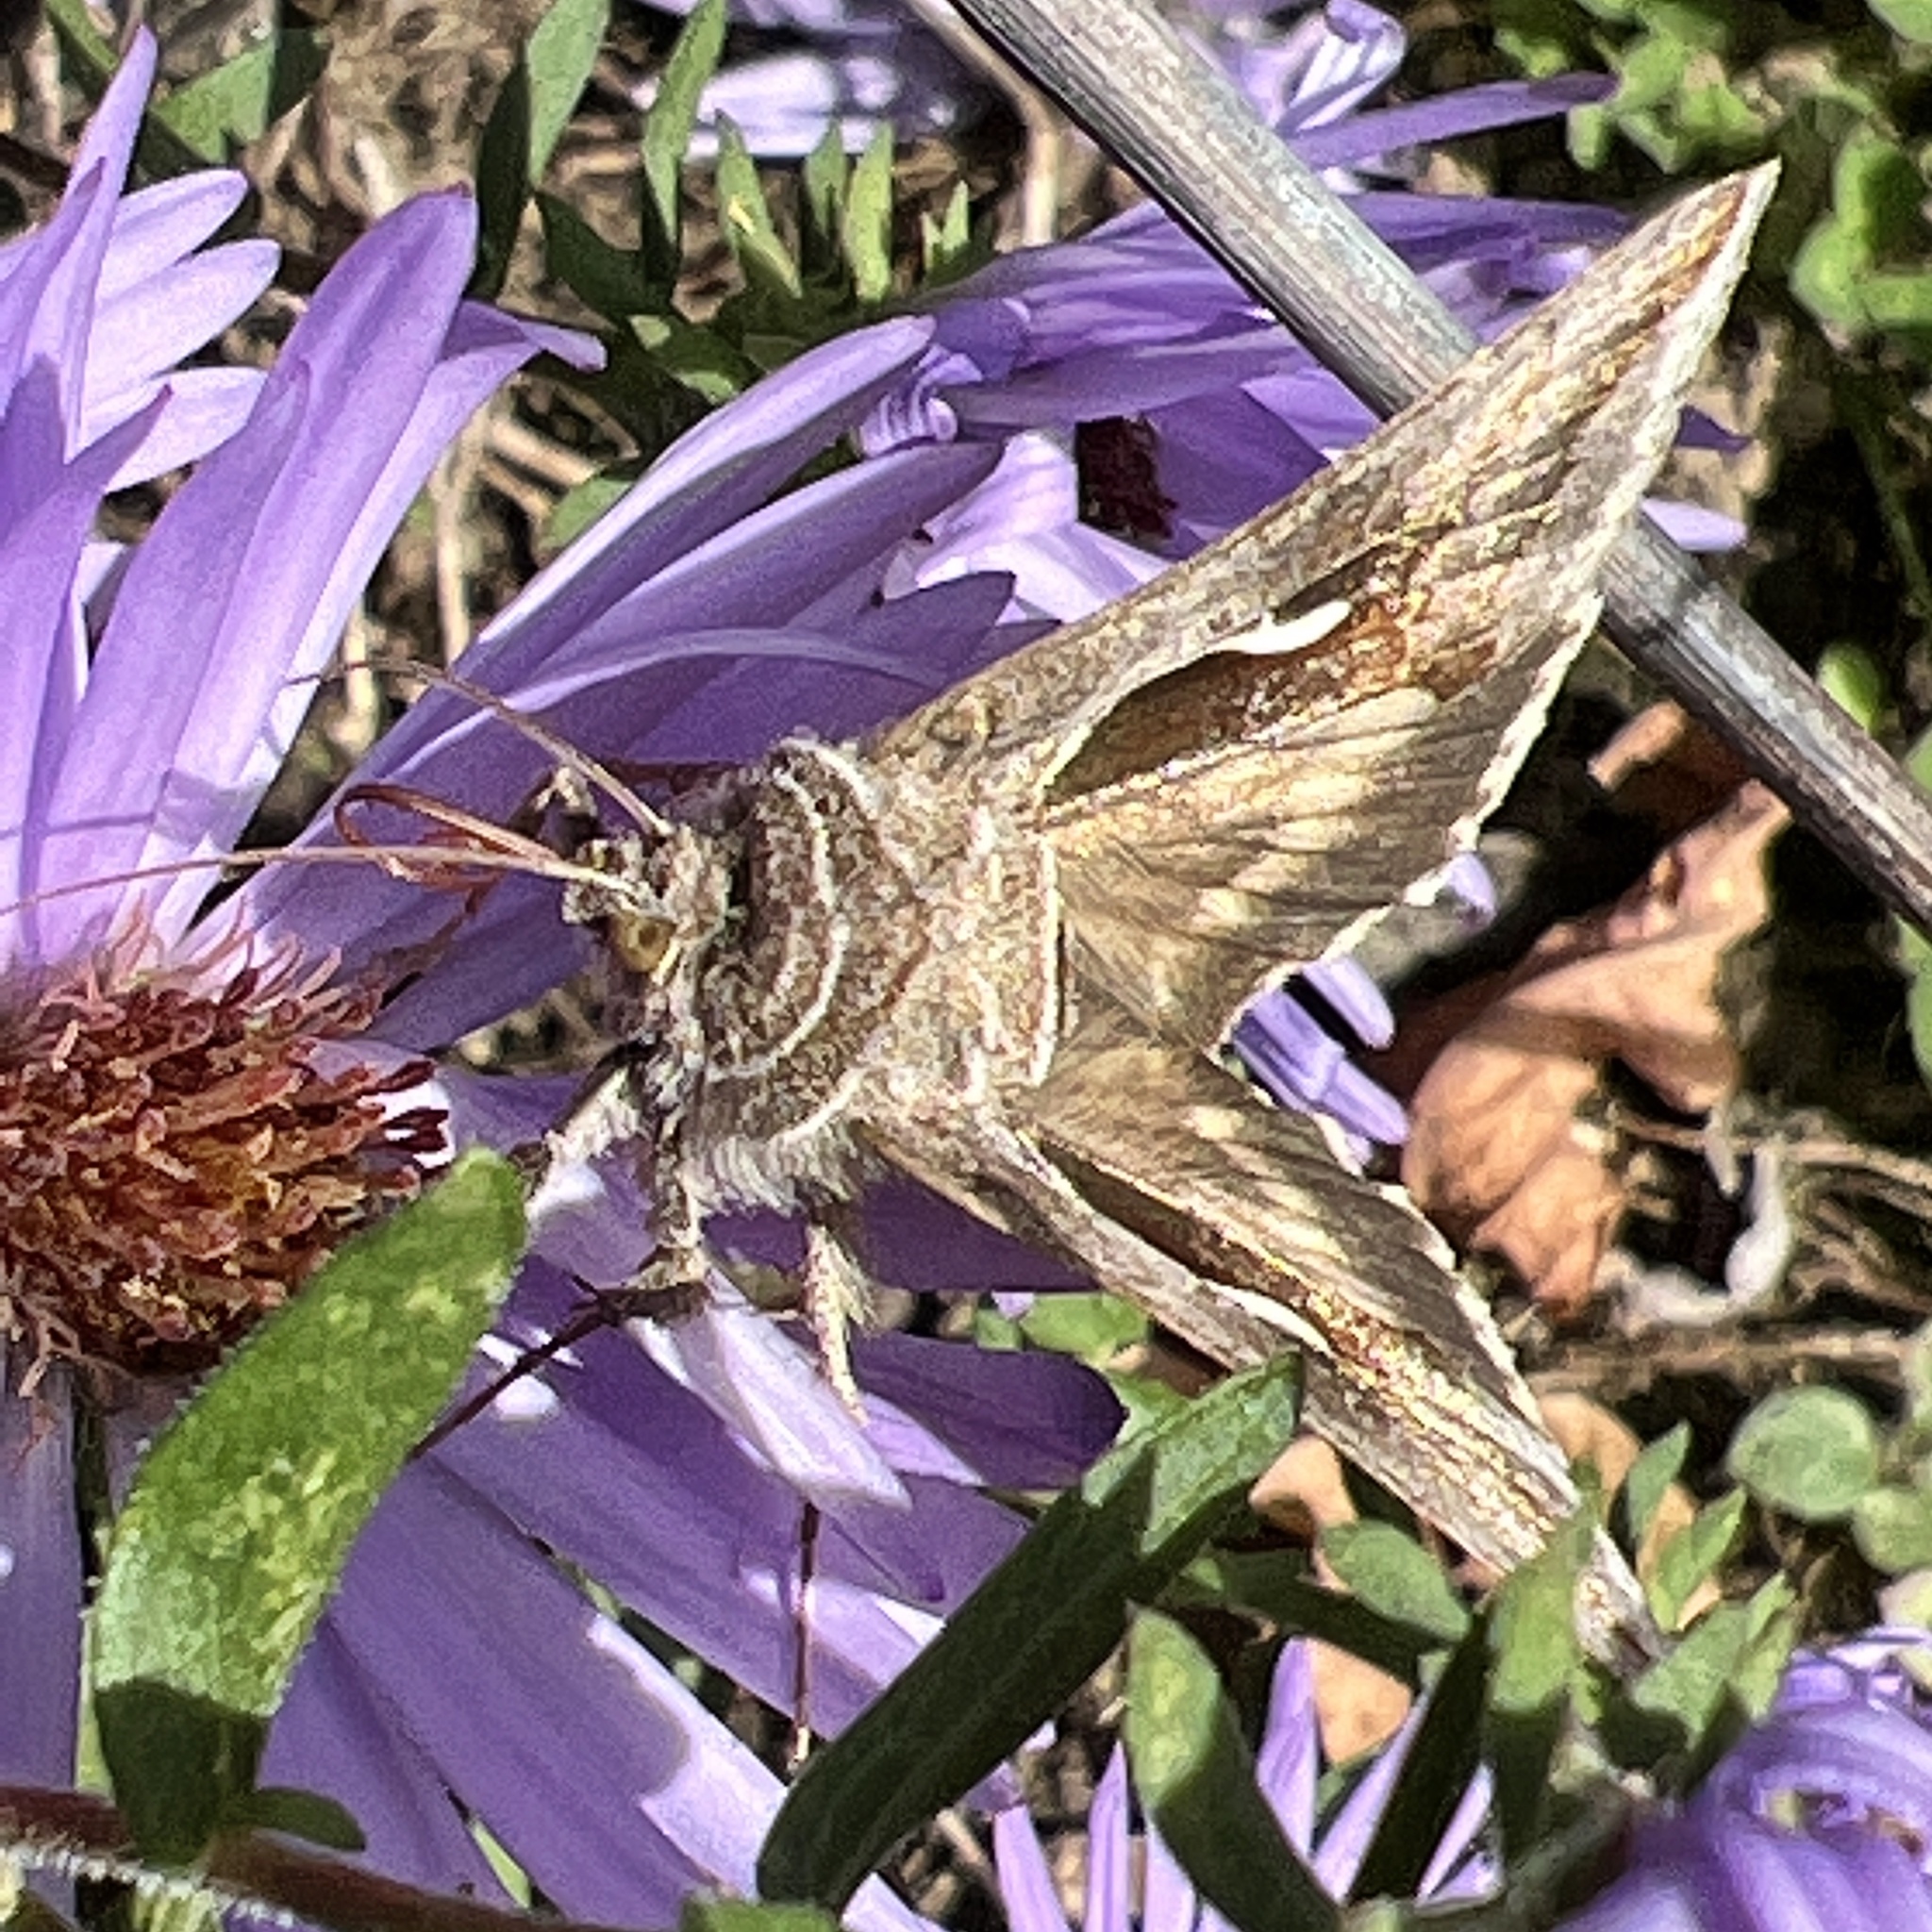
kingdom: Animalia
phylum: Arthropoda
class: Insecta
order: Lepidoptera
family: Noctuidae
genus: Anagrapha
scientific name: Anagrapha falcifera
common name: Celery looper
